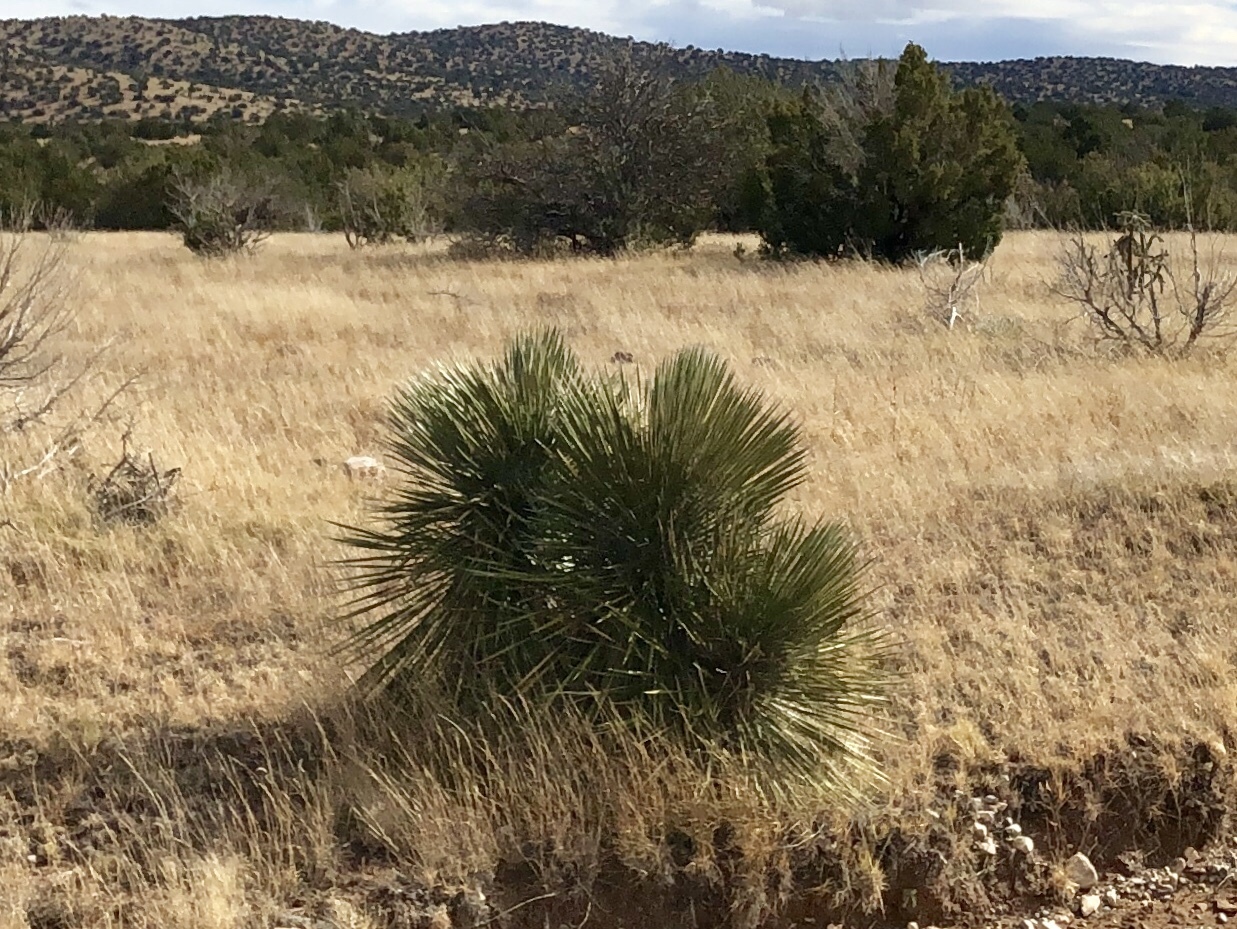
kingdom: Plantae
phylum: Tracheophyta
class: Liliopsida
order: Asparagales
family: Asparagaceae
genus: Yucca
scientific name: Yucca elata
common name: Palmella
